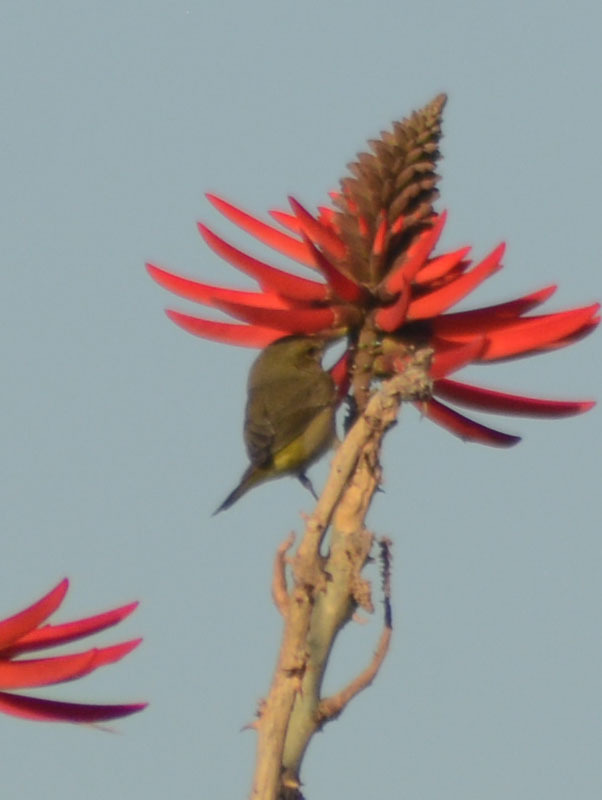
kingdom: Animalia
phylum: Chordata
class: Aves
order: Passeriformes
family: Parulidae
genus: Leiothlypis
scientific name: Leiothlypis celata
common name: Orange-crowned warbler
